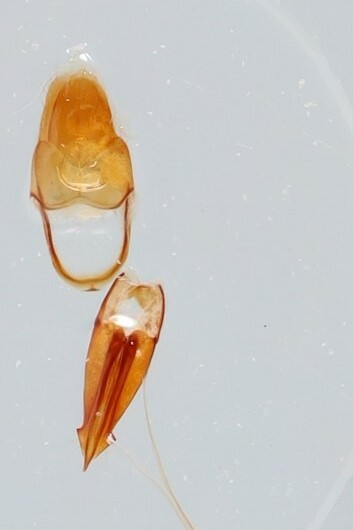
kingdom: Animalia
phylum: Arthropoda
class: Insecta
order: Coleoptera
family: Elateridae
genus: Ampedus
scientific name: Ampedus semicinctus
